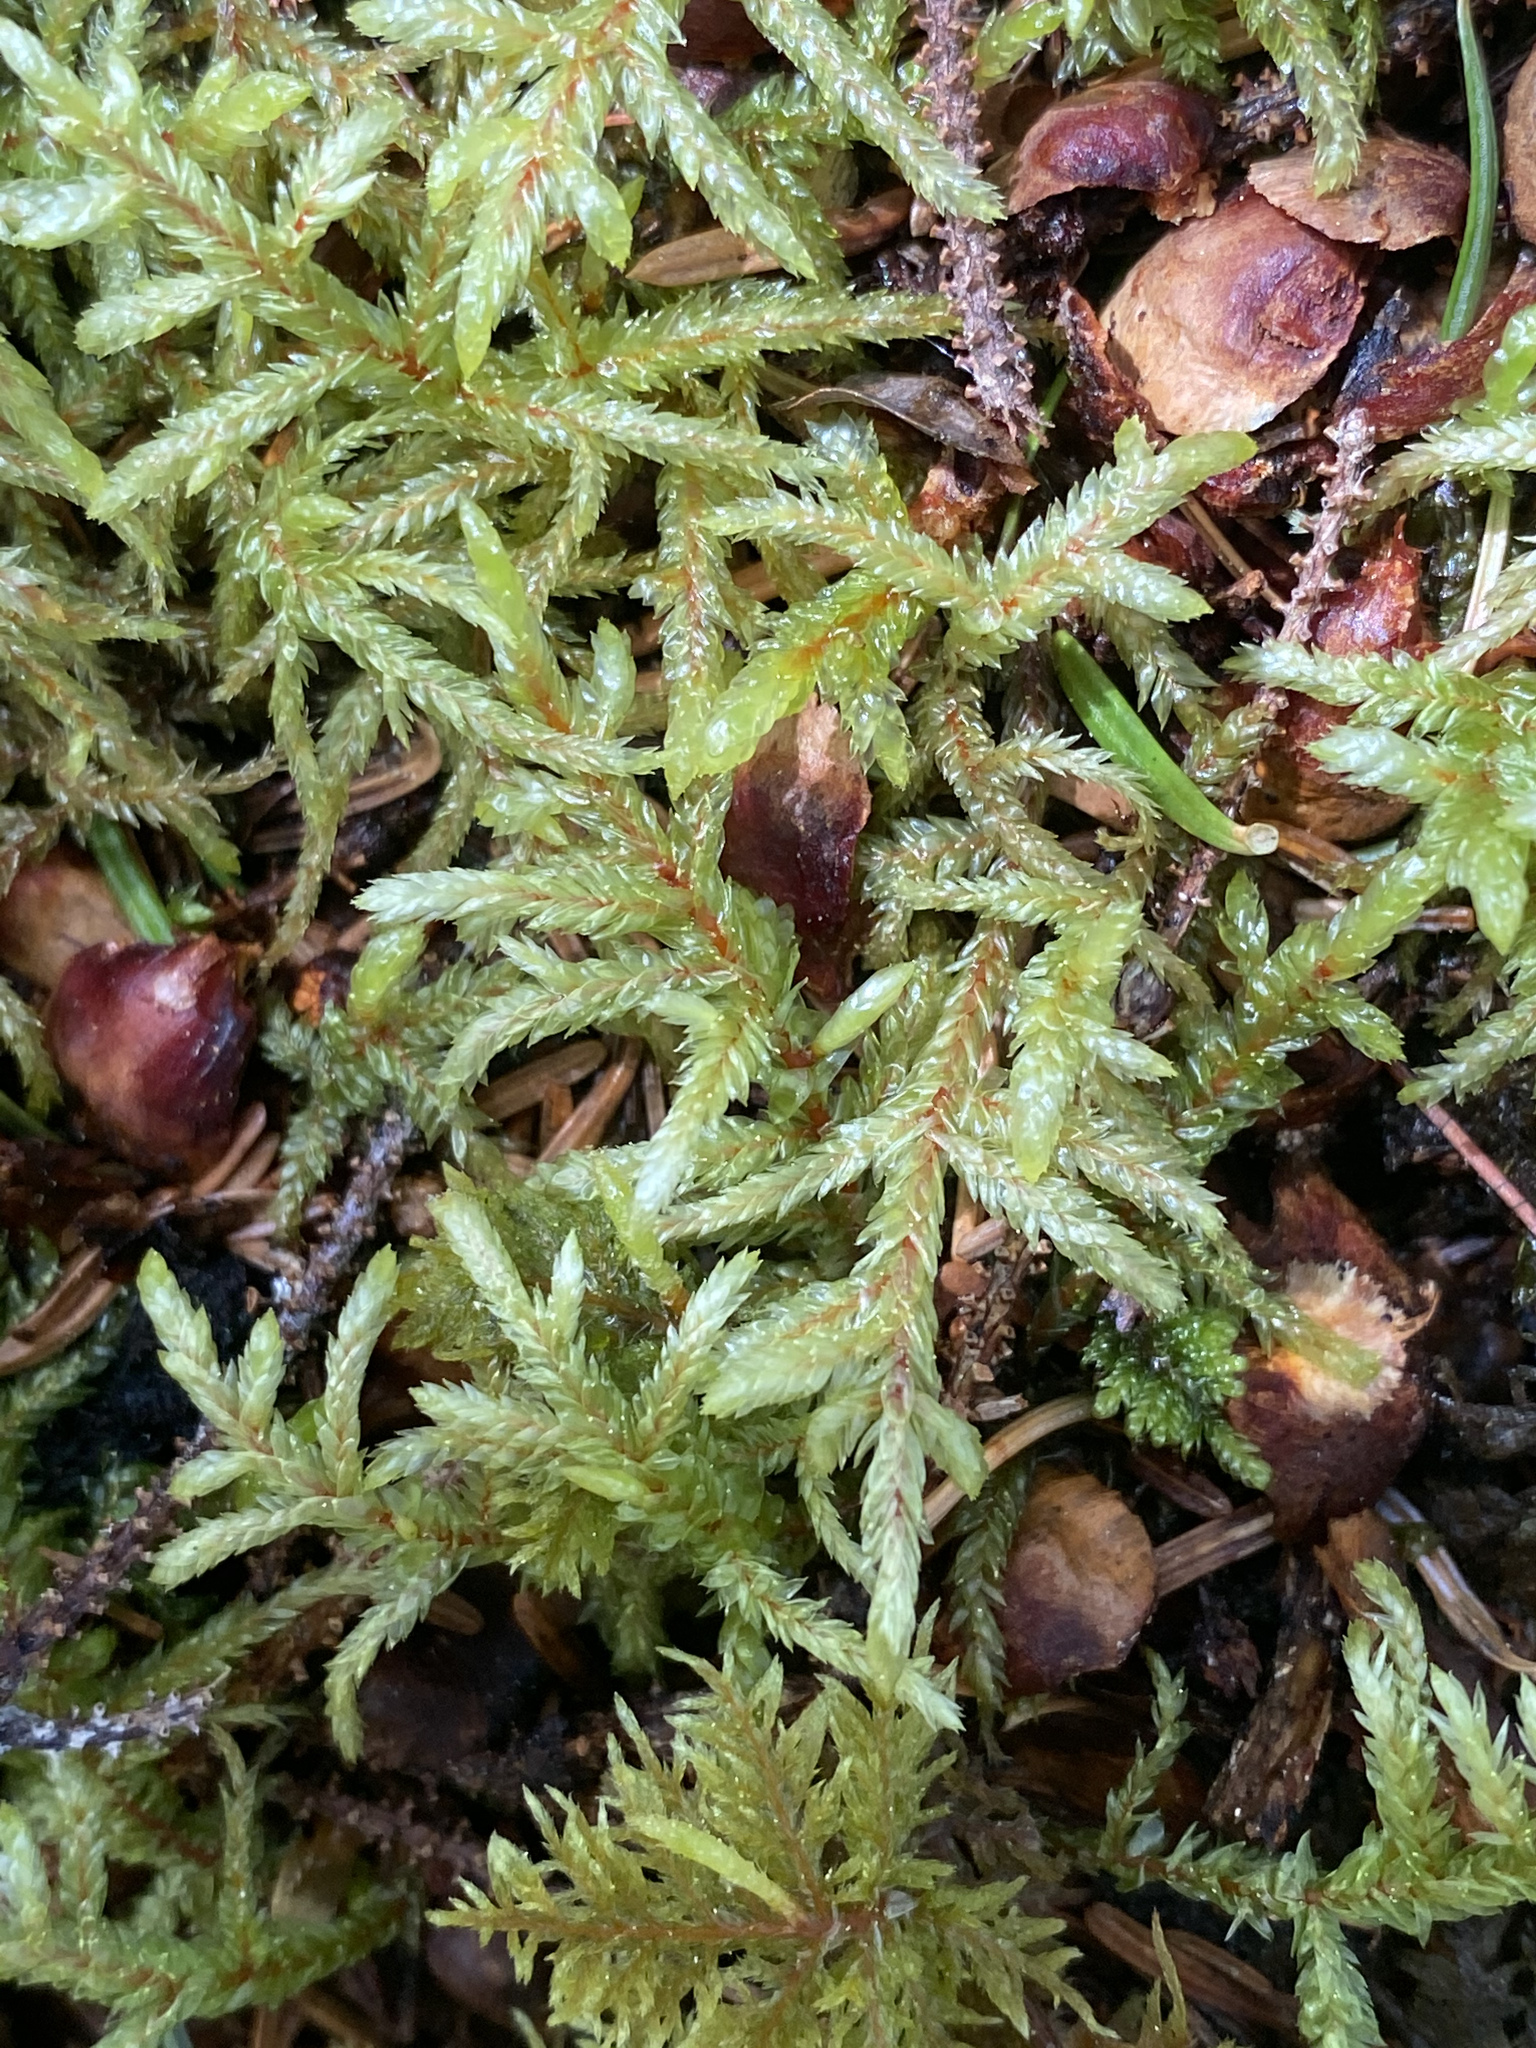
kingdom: Plantae
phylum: Bryophyta
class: Bryopsida
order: Hypnales
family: Hylocomiaceae
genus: Pleurozium
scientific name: Pleurozium schreberi
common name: Red-stemmed feather moss
